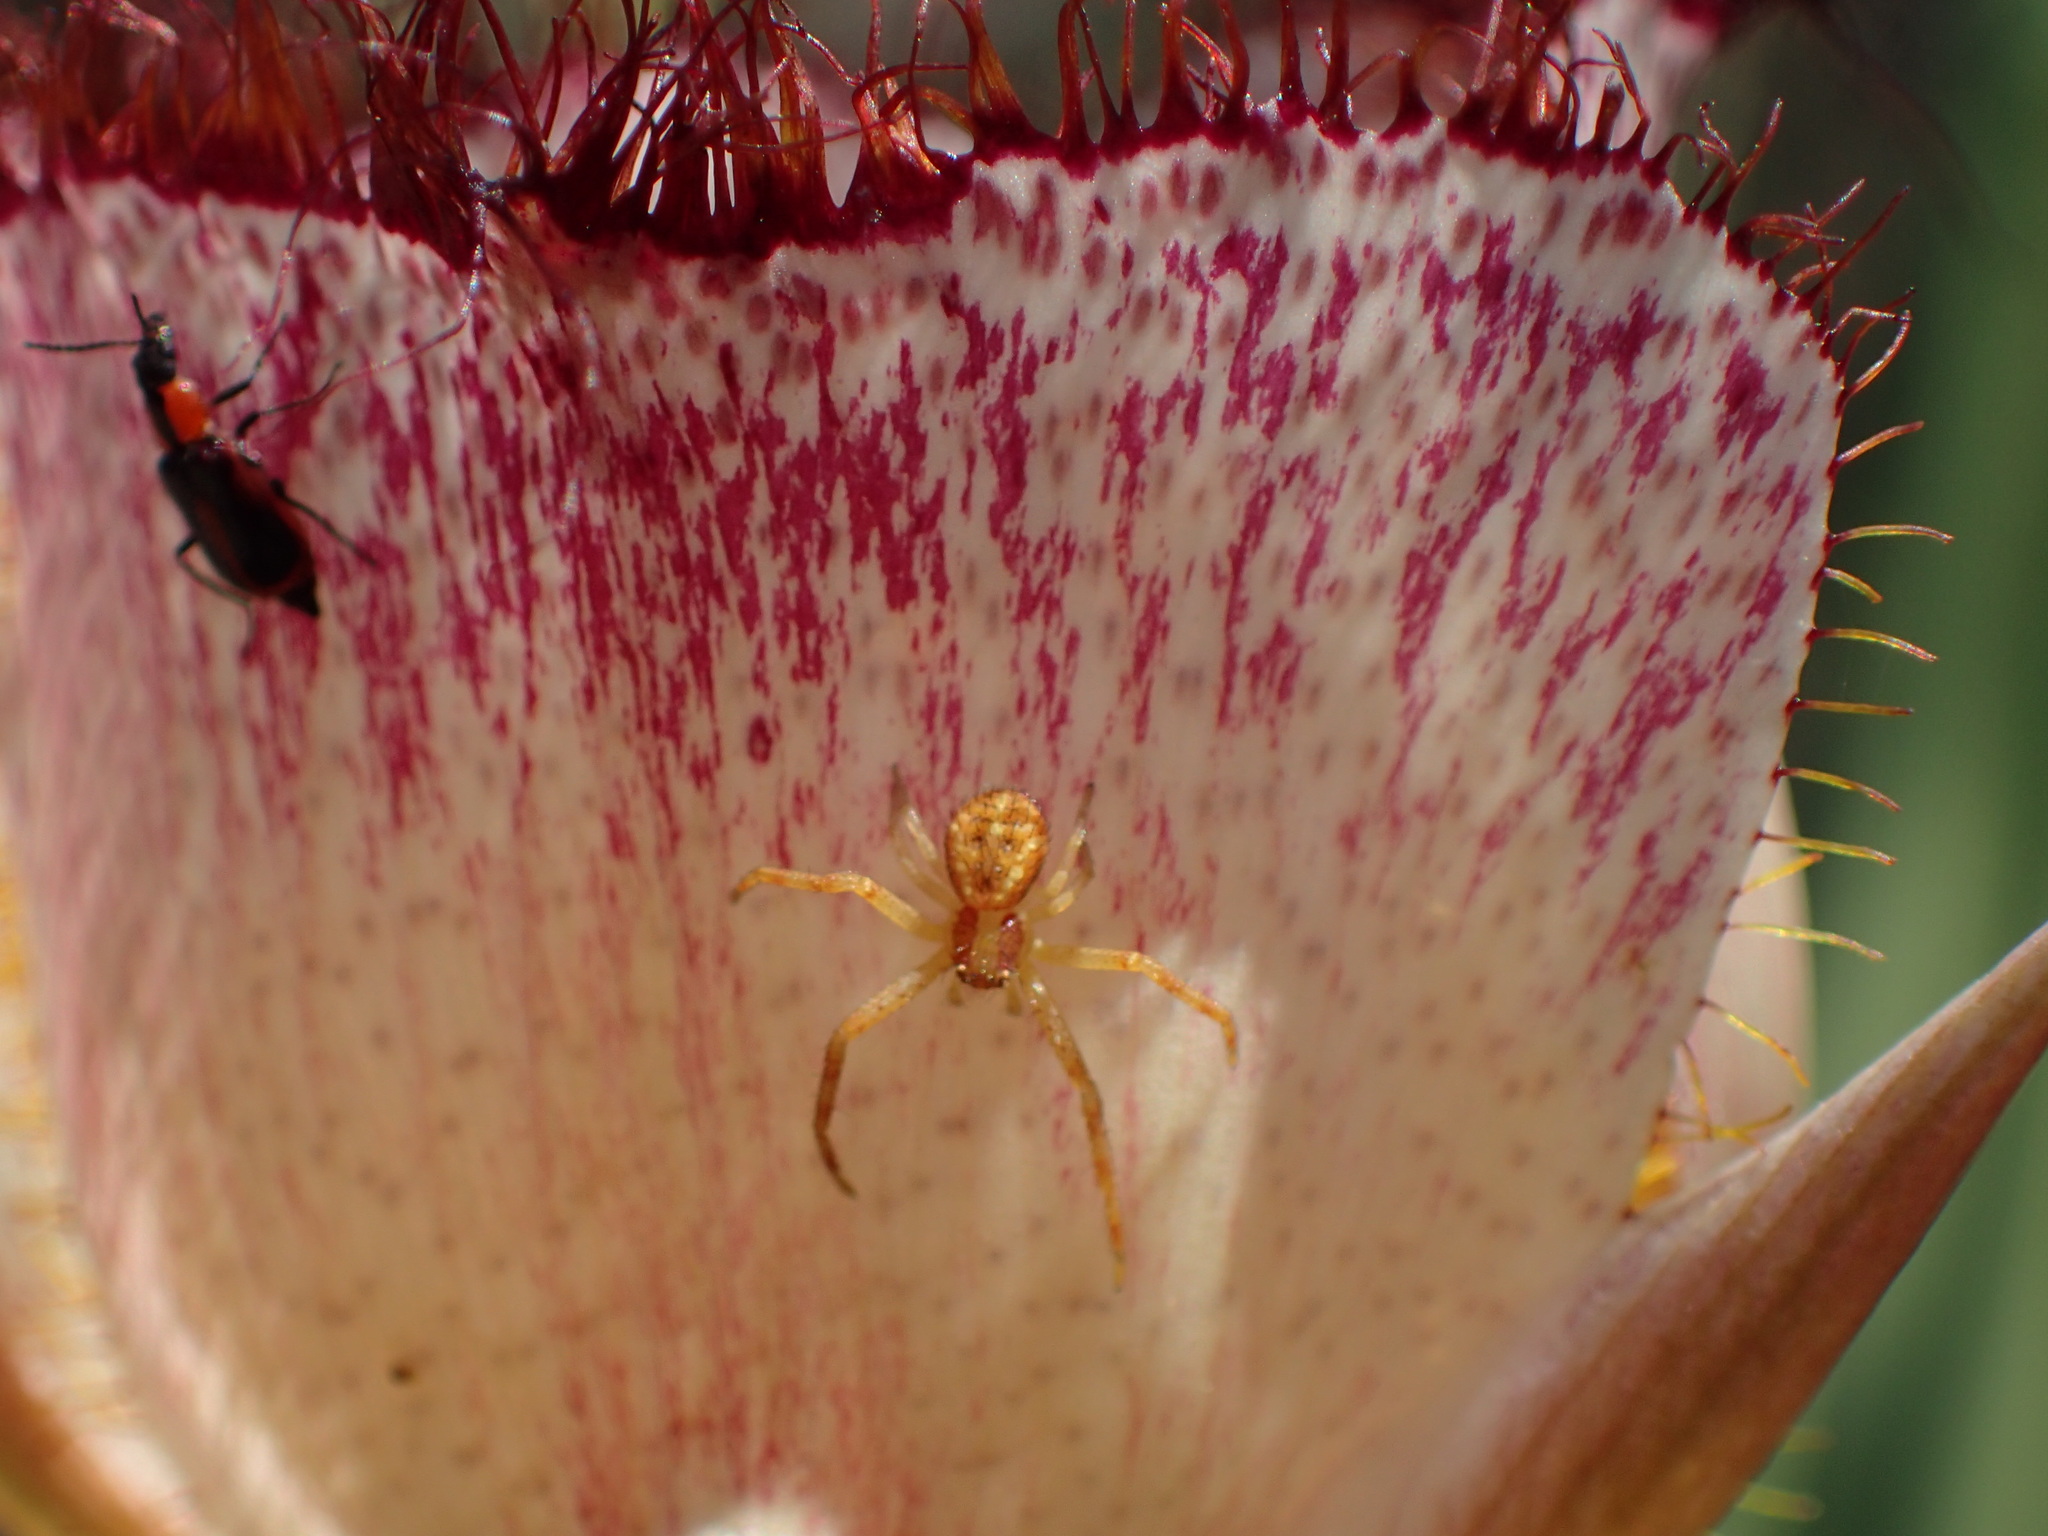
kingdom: Plantae
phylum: Tracheophyta
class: Liliopsida
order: Liliales
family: Liliaceae
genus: Calochortus
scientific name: Calochortus fimbriatus
